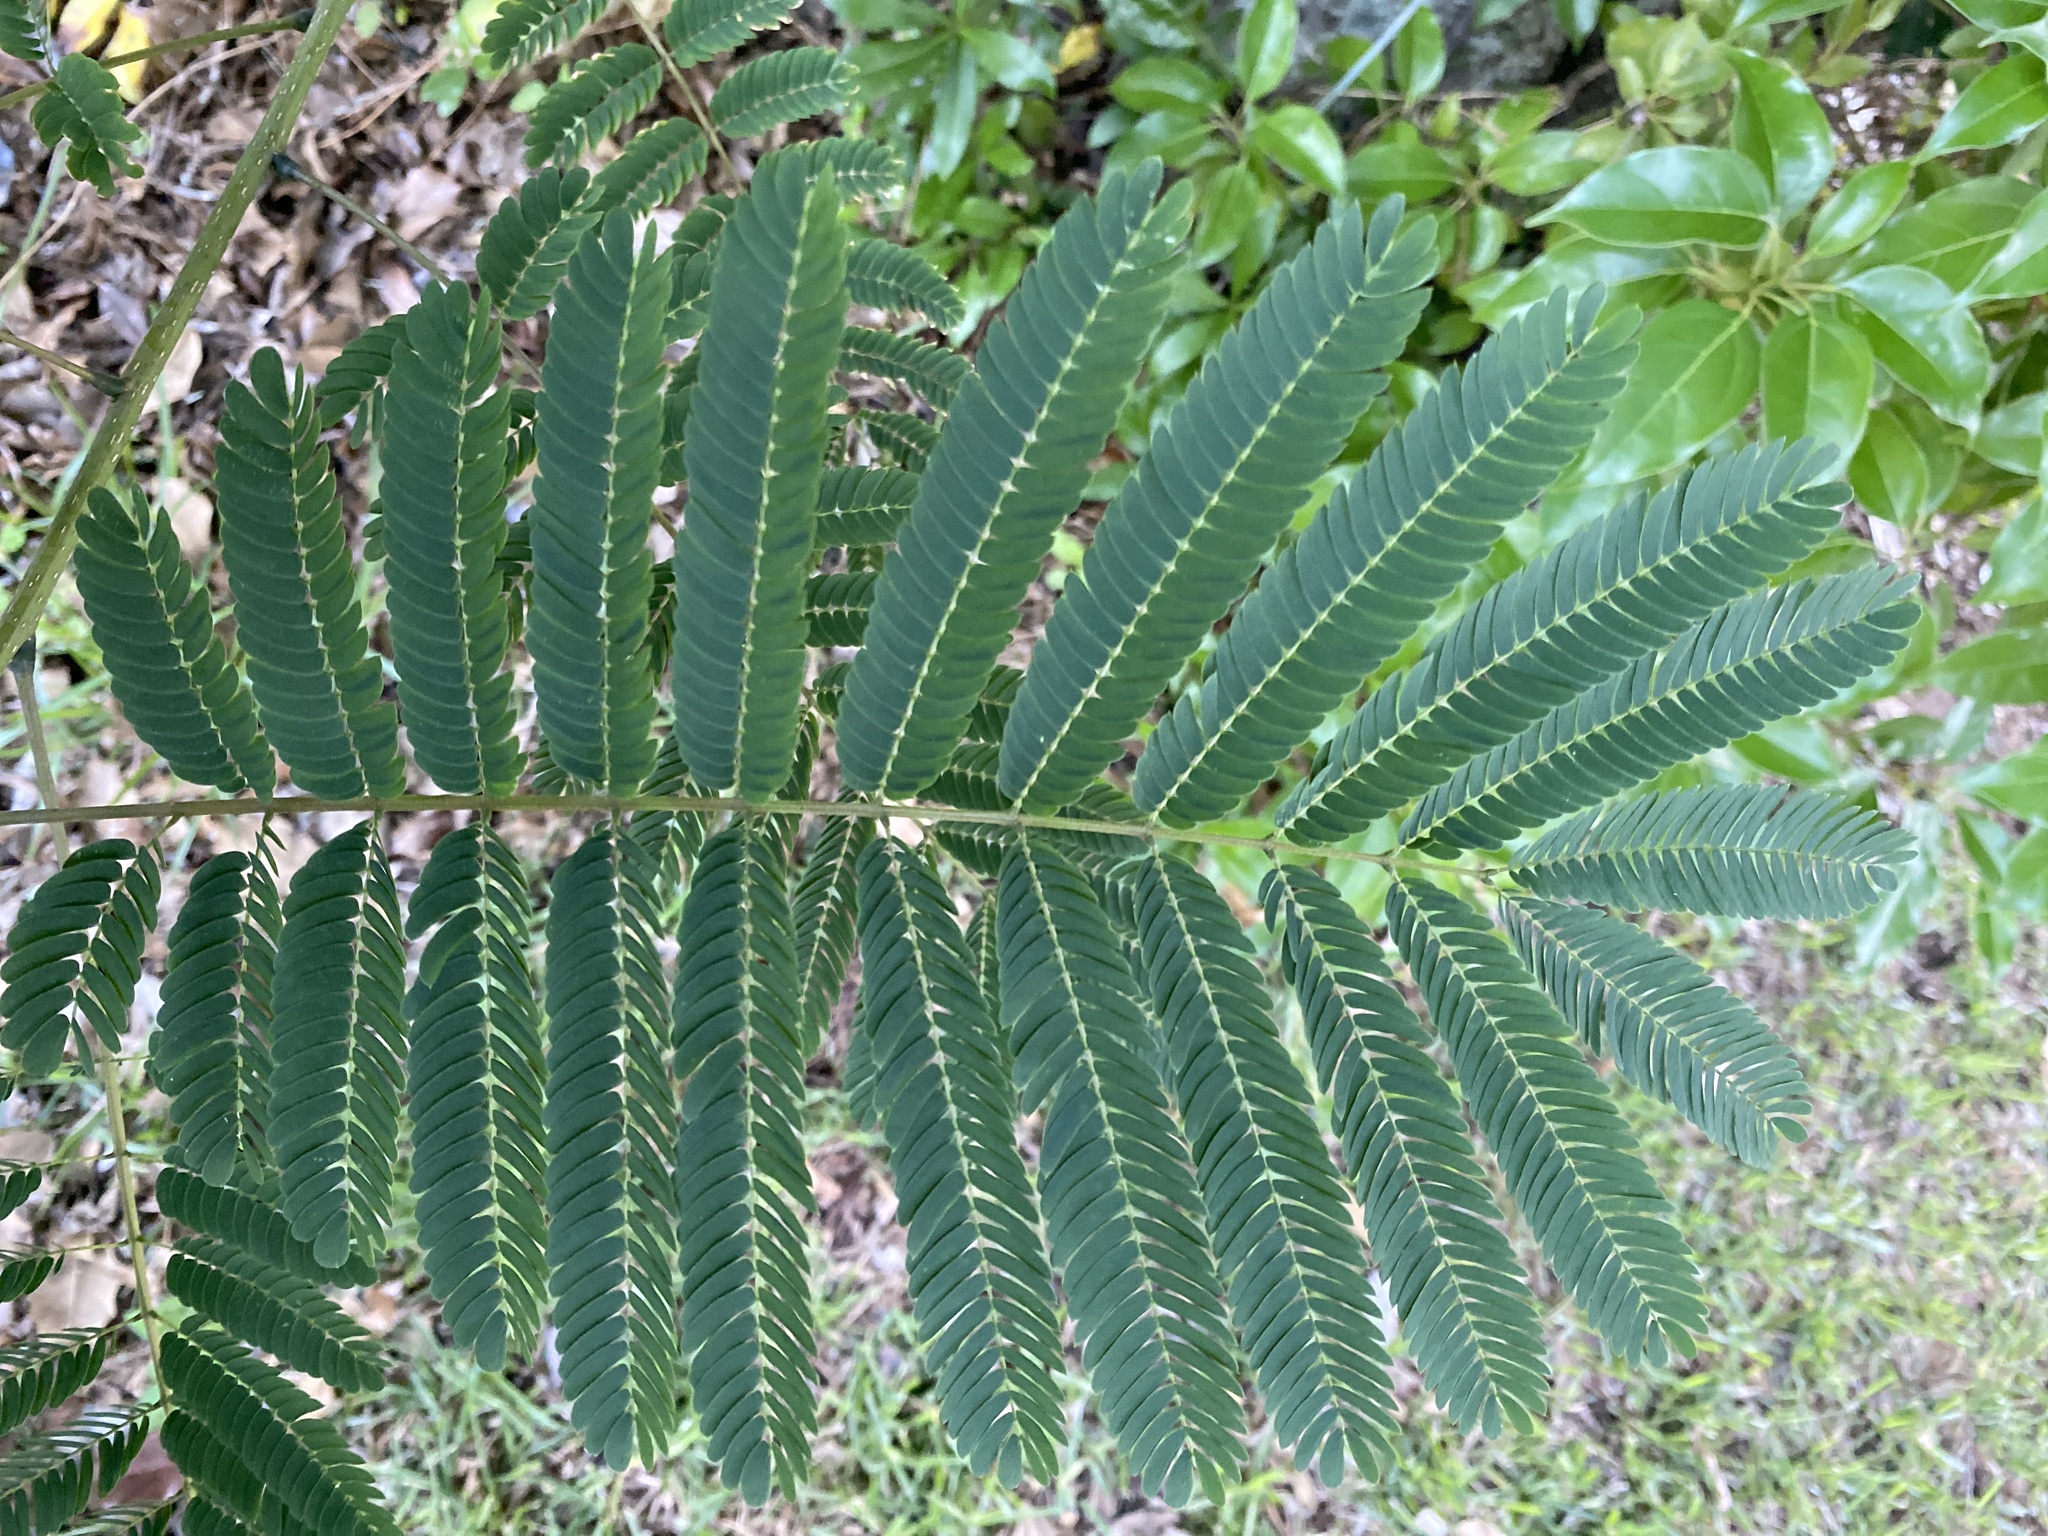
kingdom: Plantae
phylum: Tracheophyta
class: Magnoliopsida
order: Fabales
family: Fabaceae
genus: Albizia
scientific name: Albizia julibrissin
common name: Silktree
